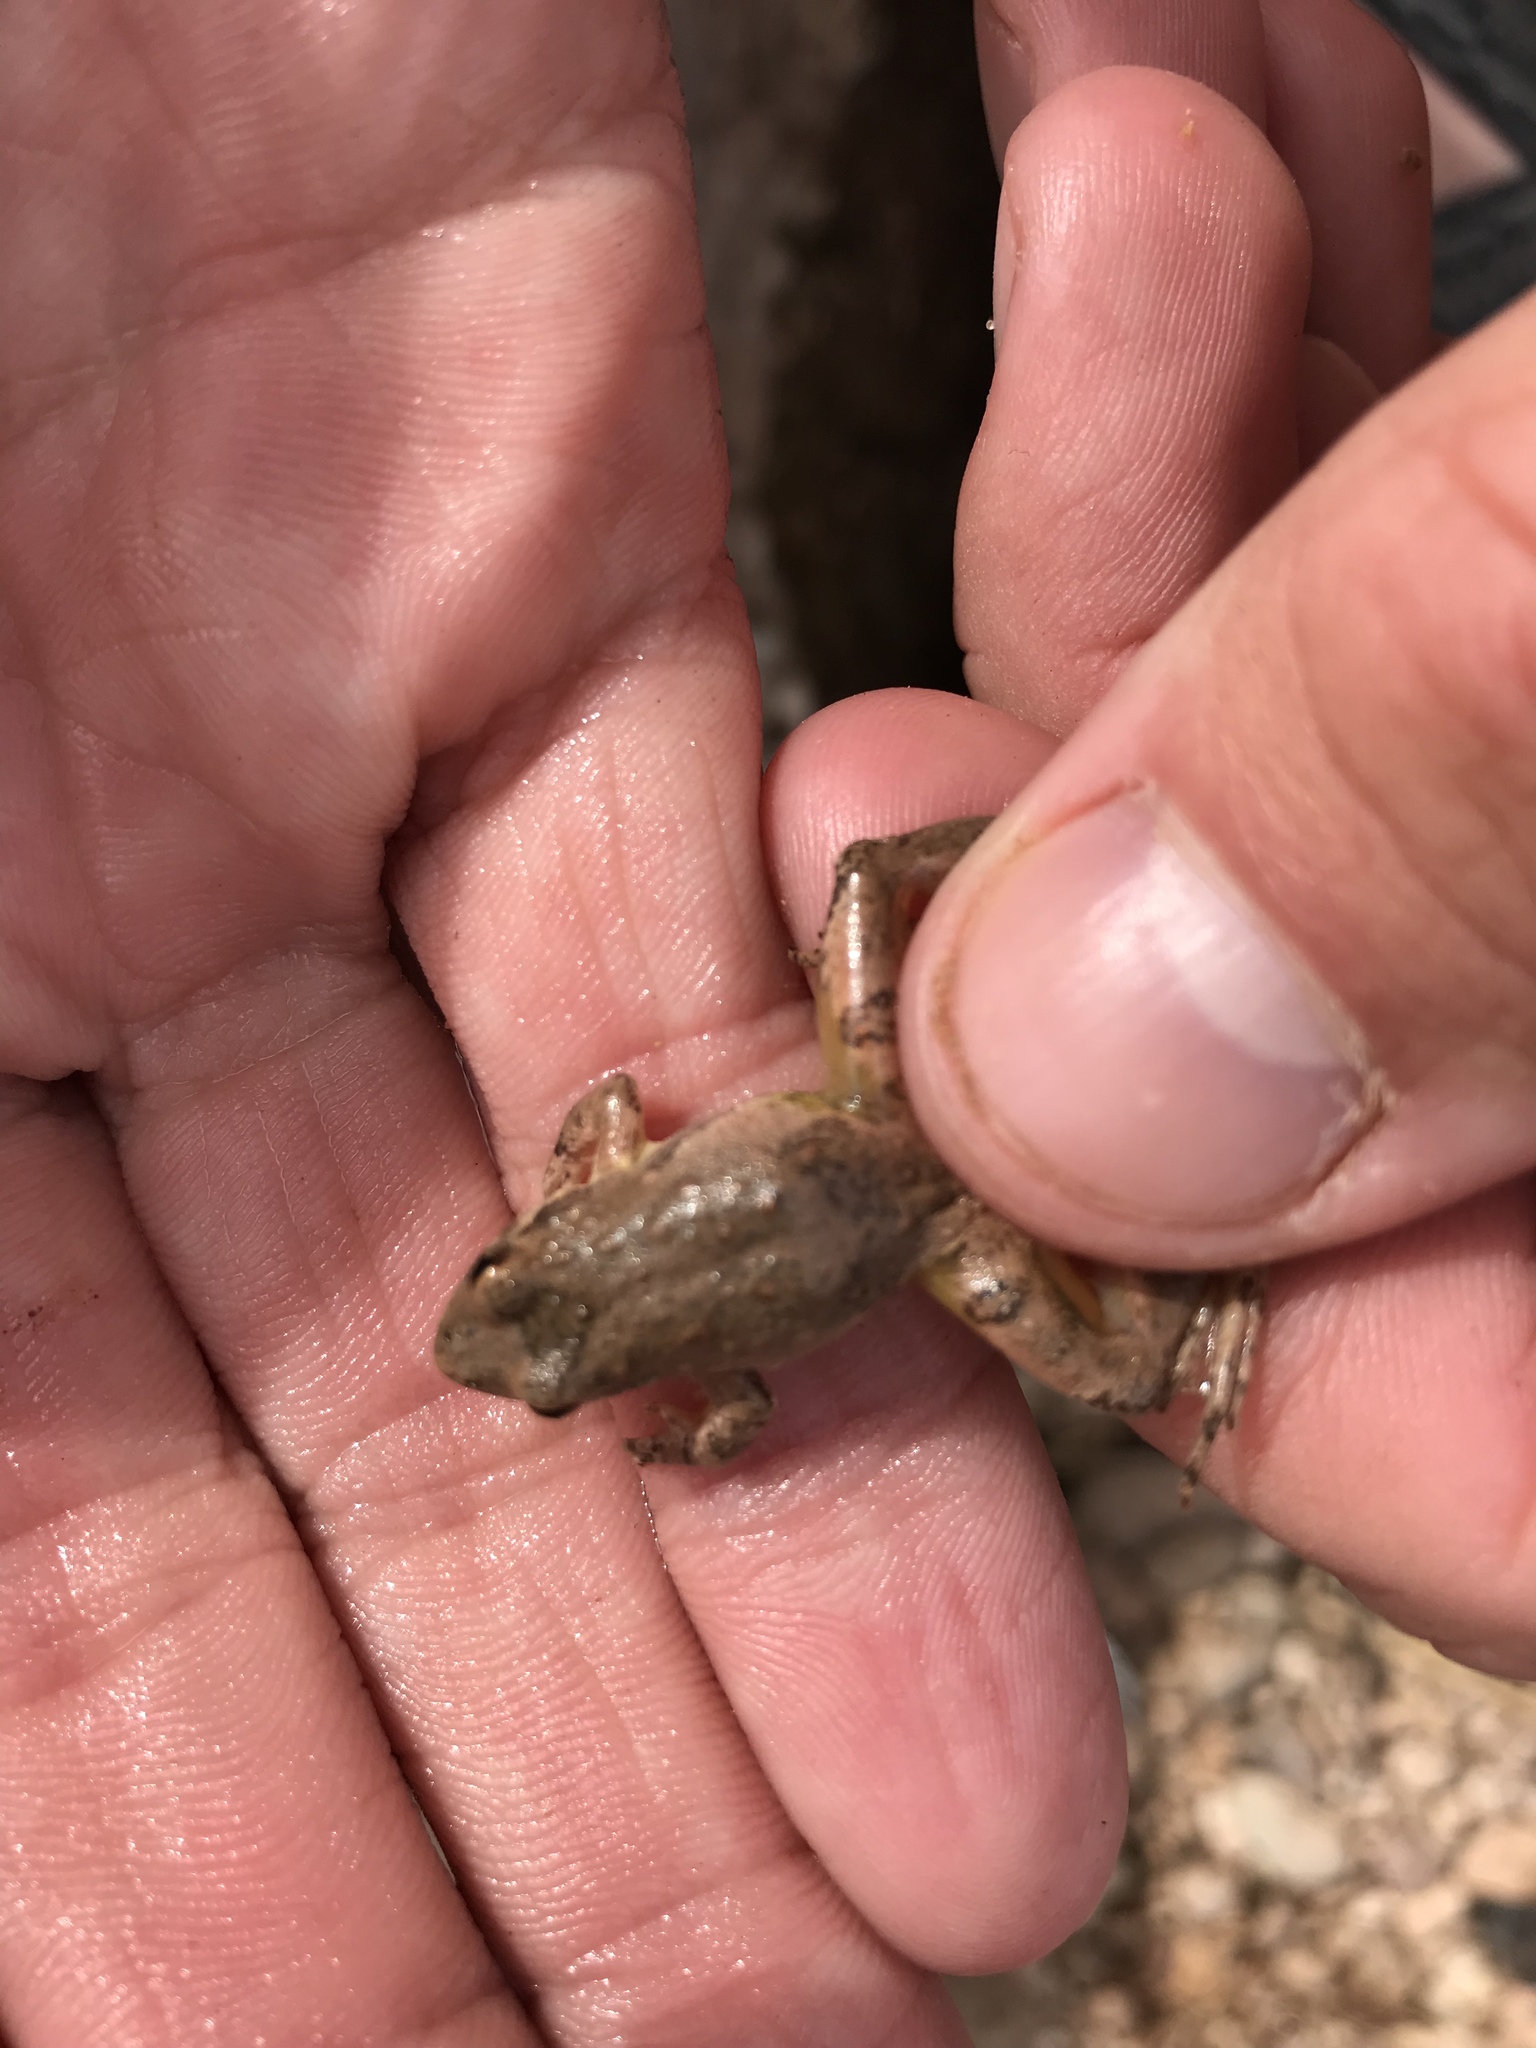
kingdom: Animalia
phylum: Chordata
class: Amphibia
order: Anura
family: Hylidae
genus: Acris
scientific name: Acris blanchardi
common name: Blanchard's cricket frog
